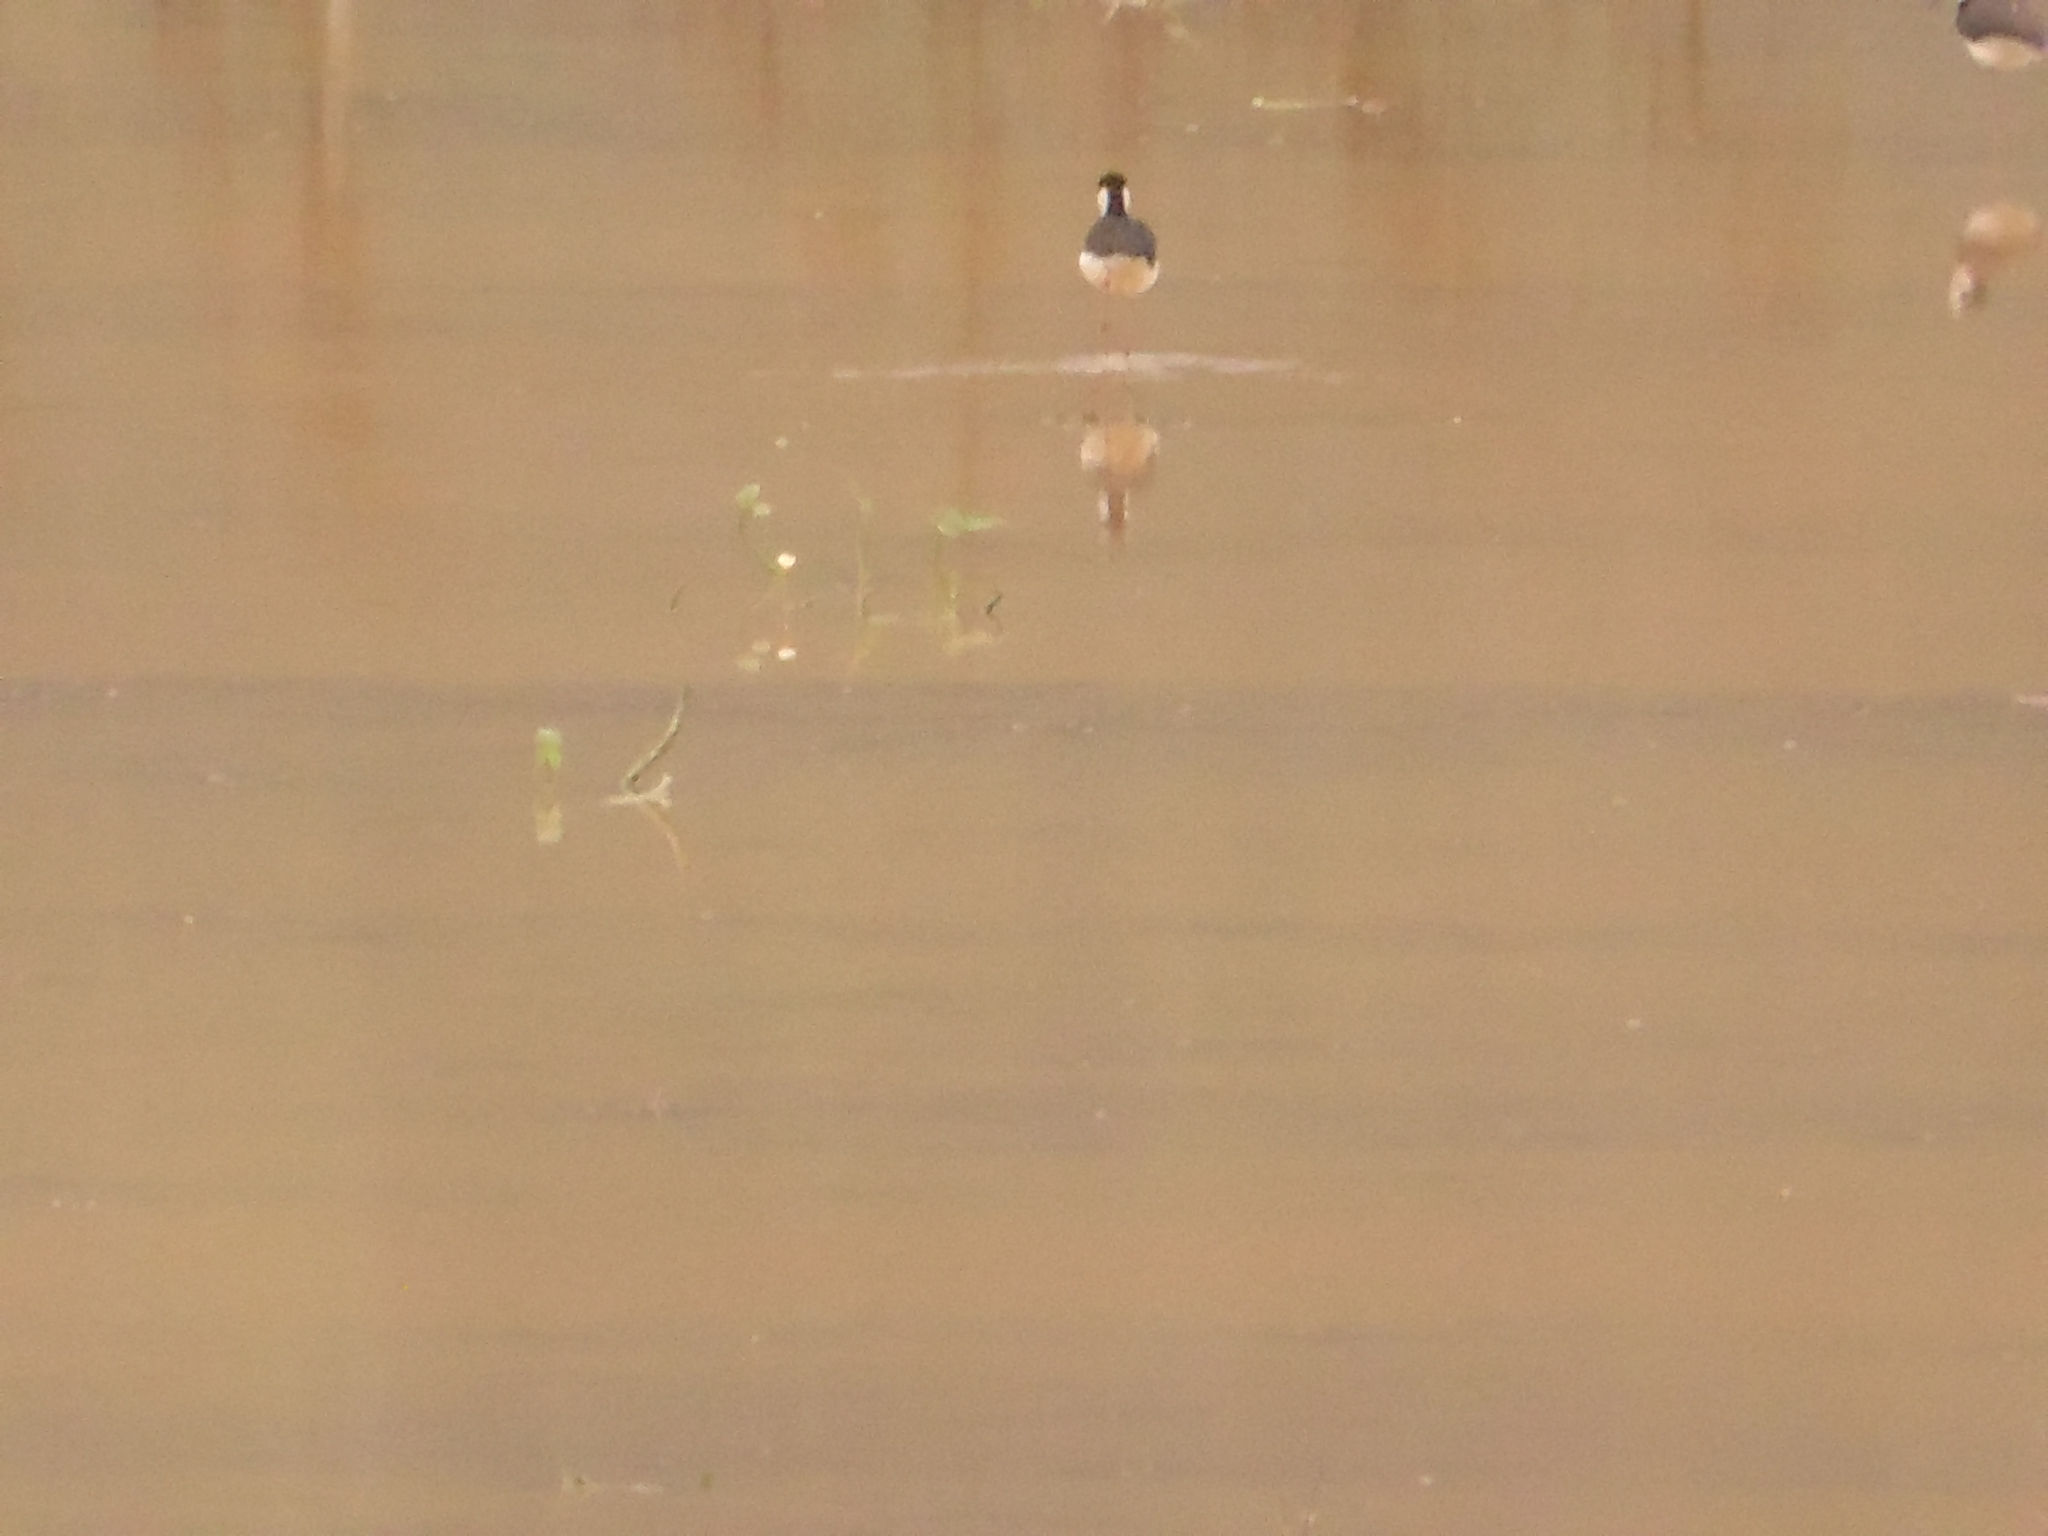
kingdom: Animalia
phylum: Chordata
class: Aves
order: Charadriiformes
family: Recurvirostridae
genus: Himantopus
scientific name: Himantopus mexicanus
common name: Black-necked stilt
